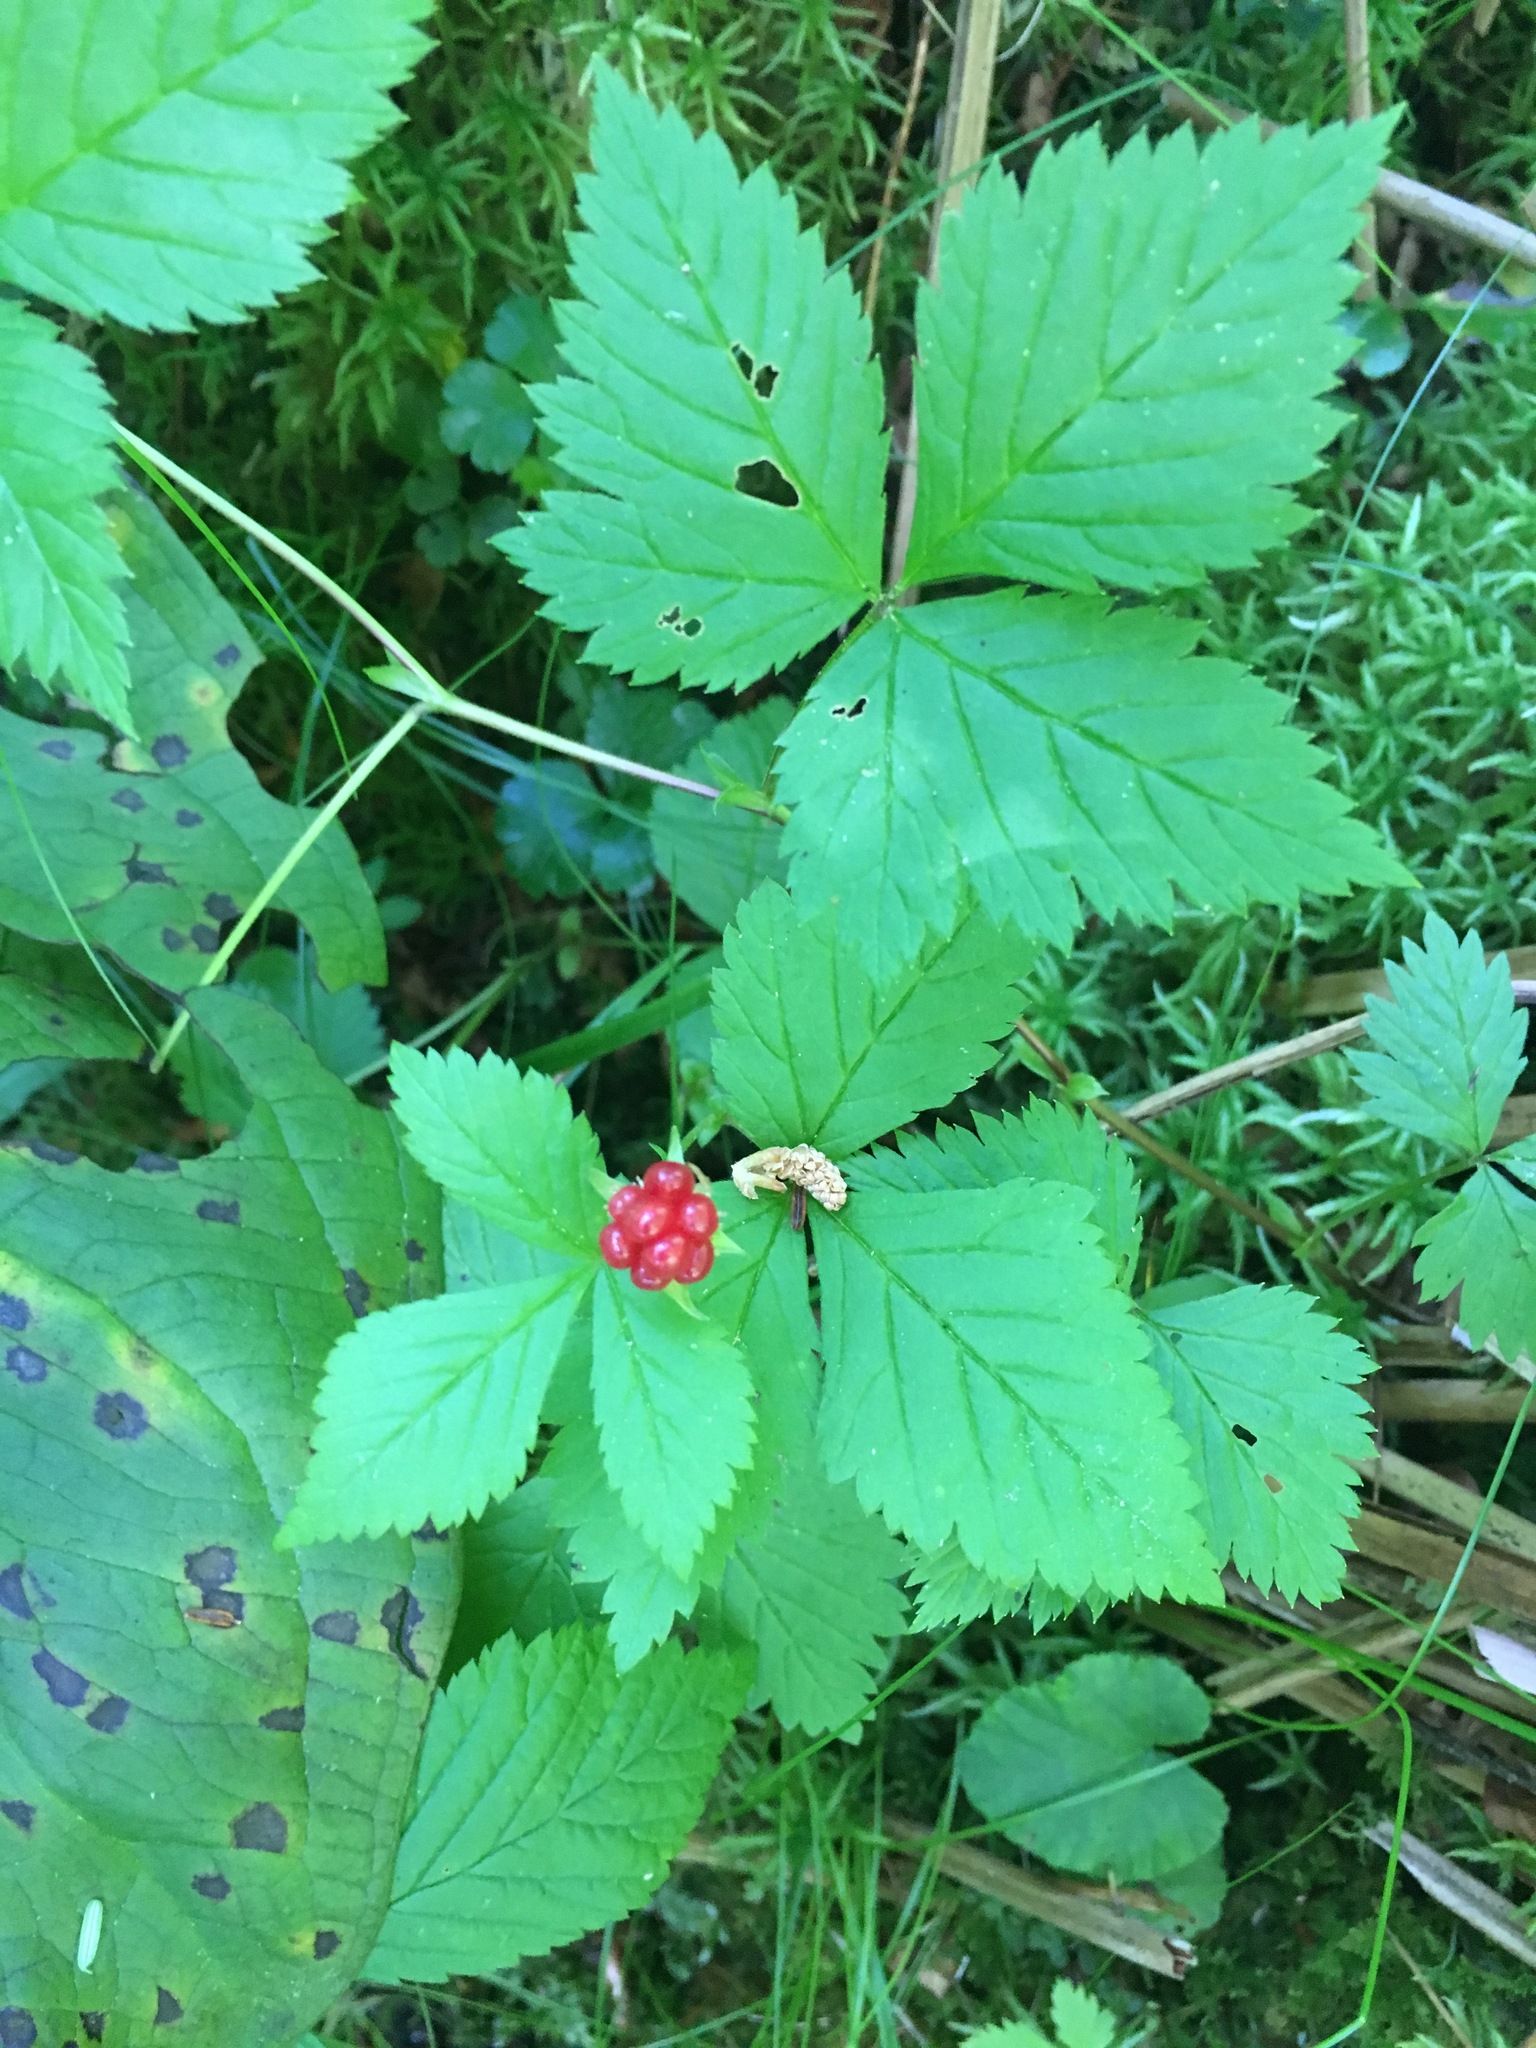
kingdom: Plantae
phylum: Tracheophyta
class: Magnoliopsida
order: Rosales
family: Rosaceae
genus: Rubus
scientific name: Rubus pubescens
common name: Dwarf raspberry
